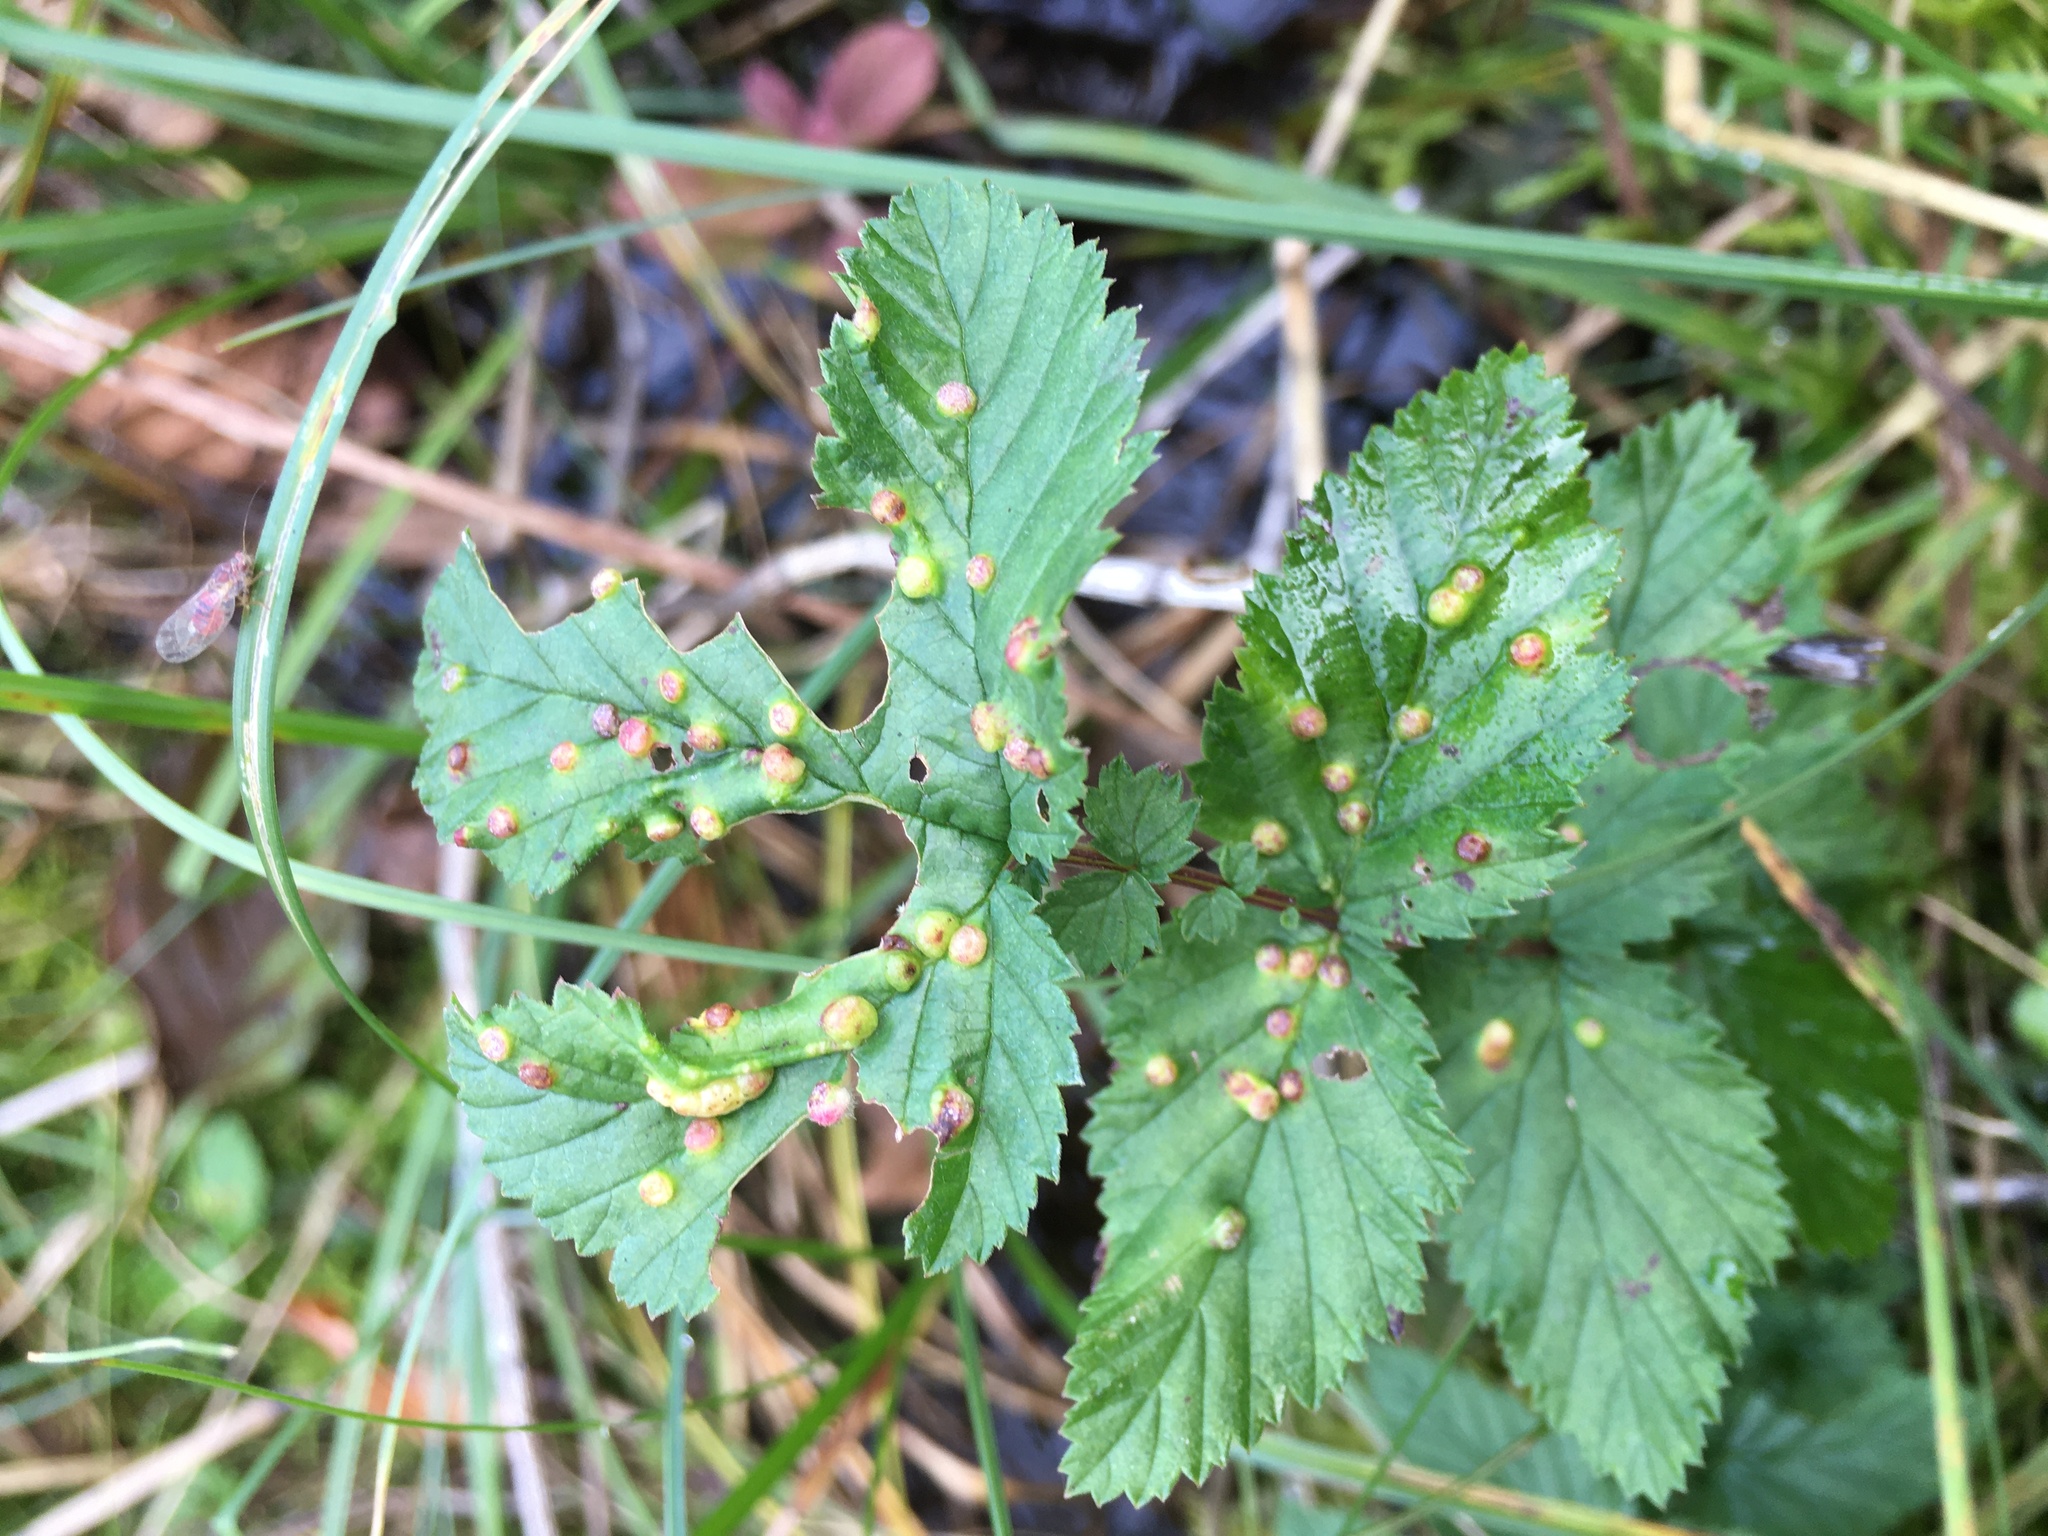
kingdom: Animalia
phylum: Arthropoda
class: Insecta
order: Diptera
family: Cecidomyiidae
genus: Dasineura
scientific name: Dasineura ulmaria
